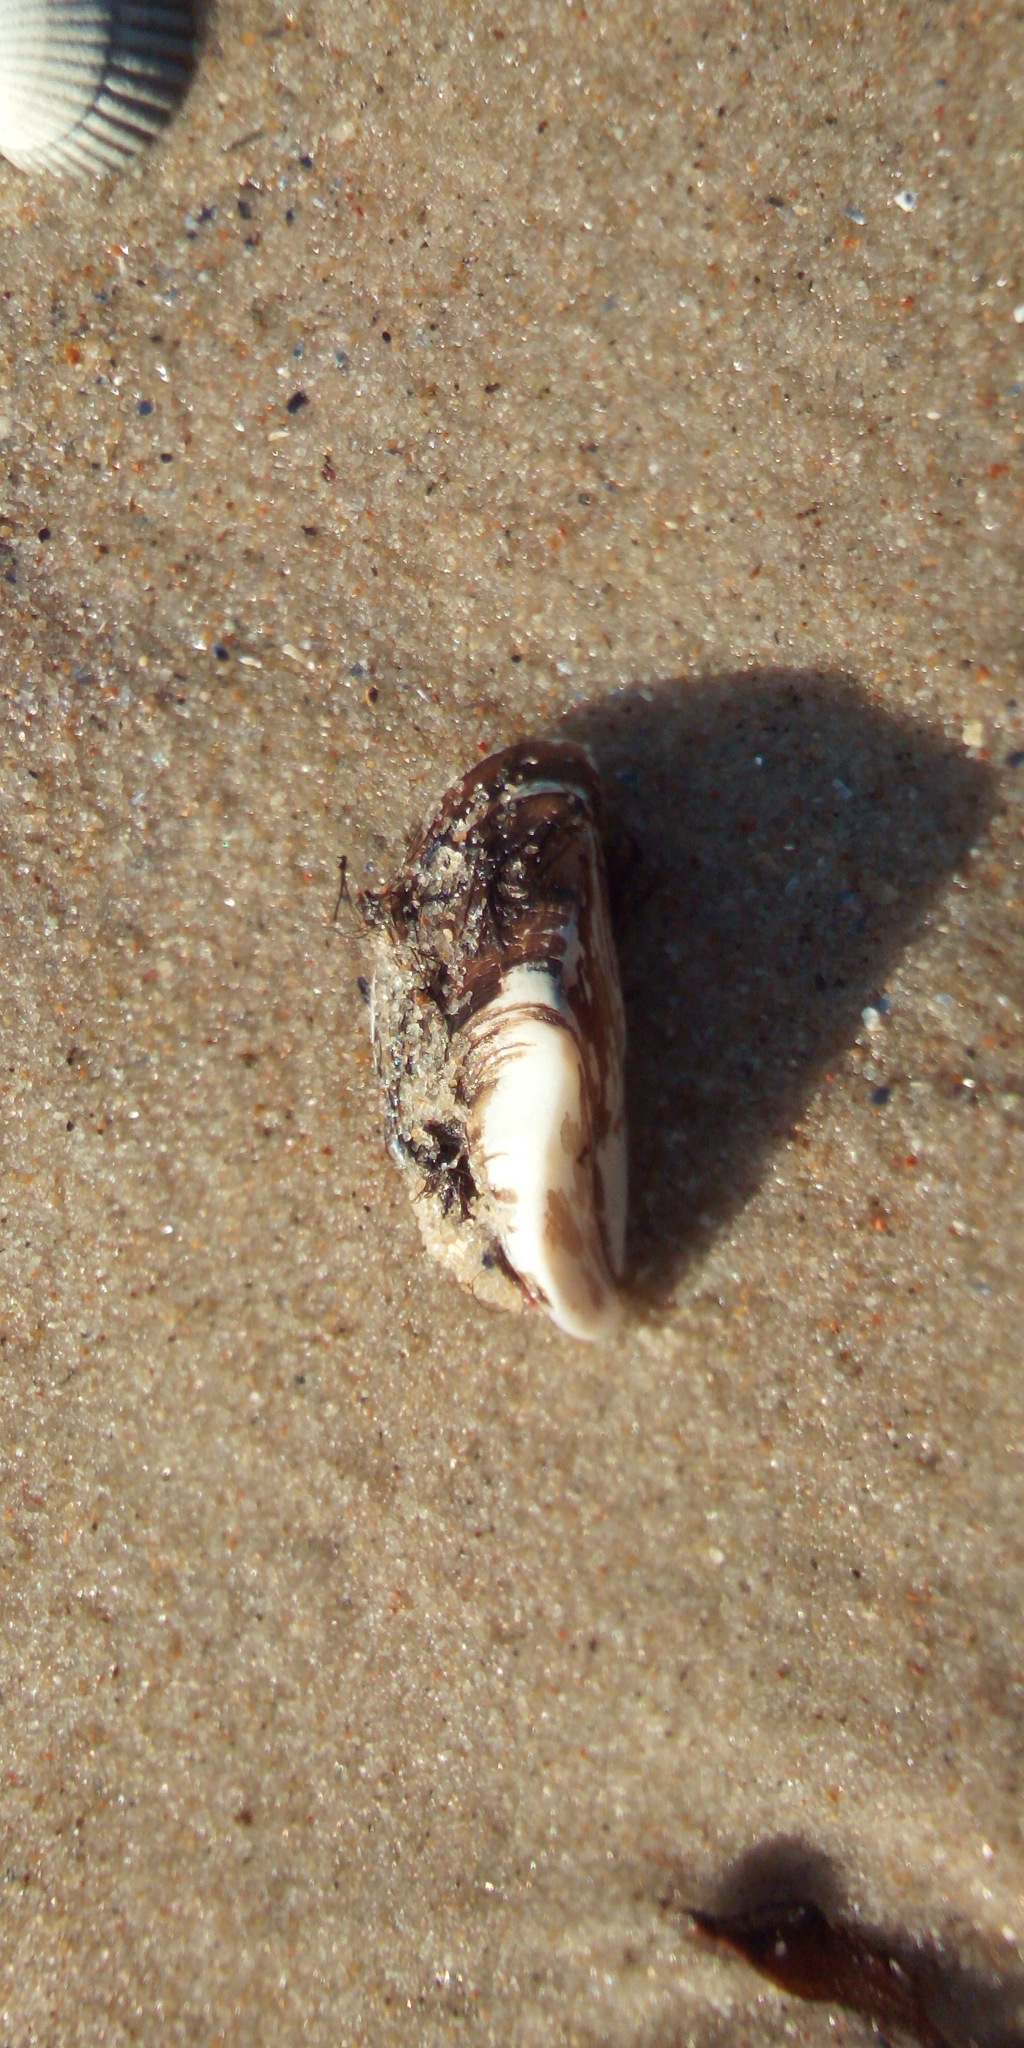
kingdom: Animalia
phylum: Mollusca
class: Bivalvia
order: Myida
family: Dreissenidae
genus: Dreissena
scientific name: Dreissena polymorpha
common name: Zebra mussel
